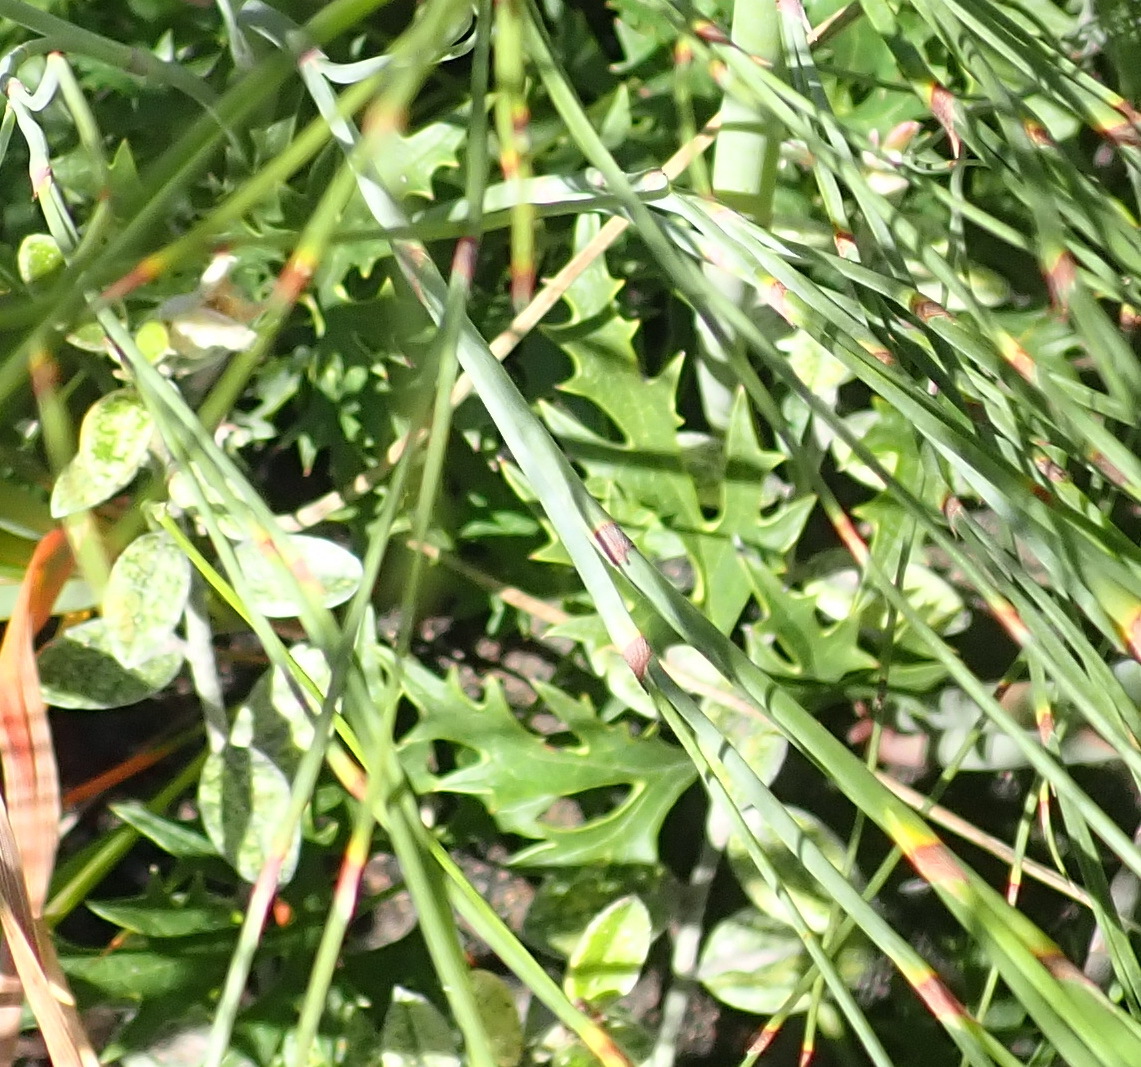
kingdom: Plantae
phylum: Tracheophyta
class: Magnoliopsida
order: Ranunculales
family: Ranunculaceae
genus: Knowltonia
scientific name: Knowltonia filia
